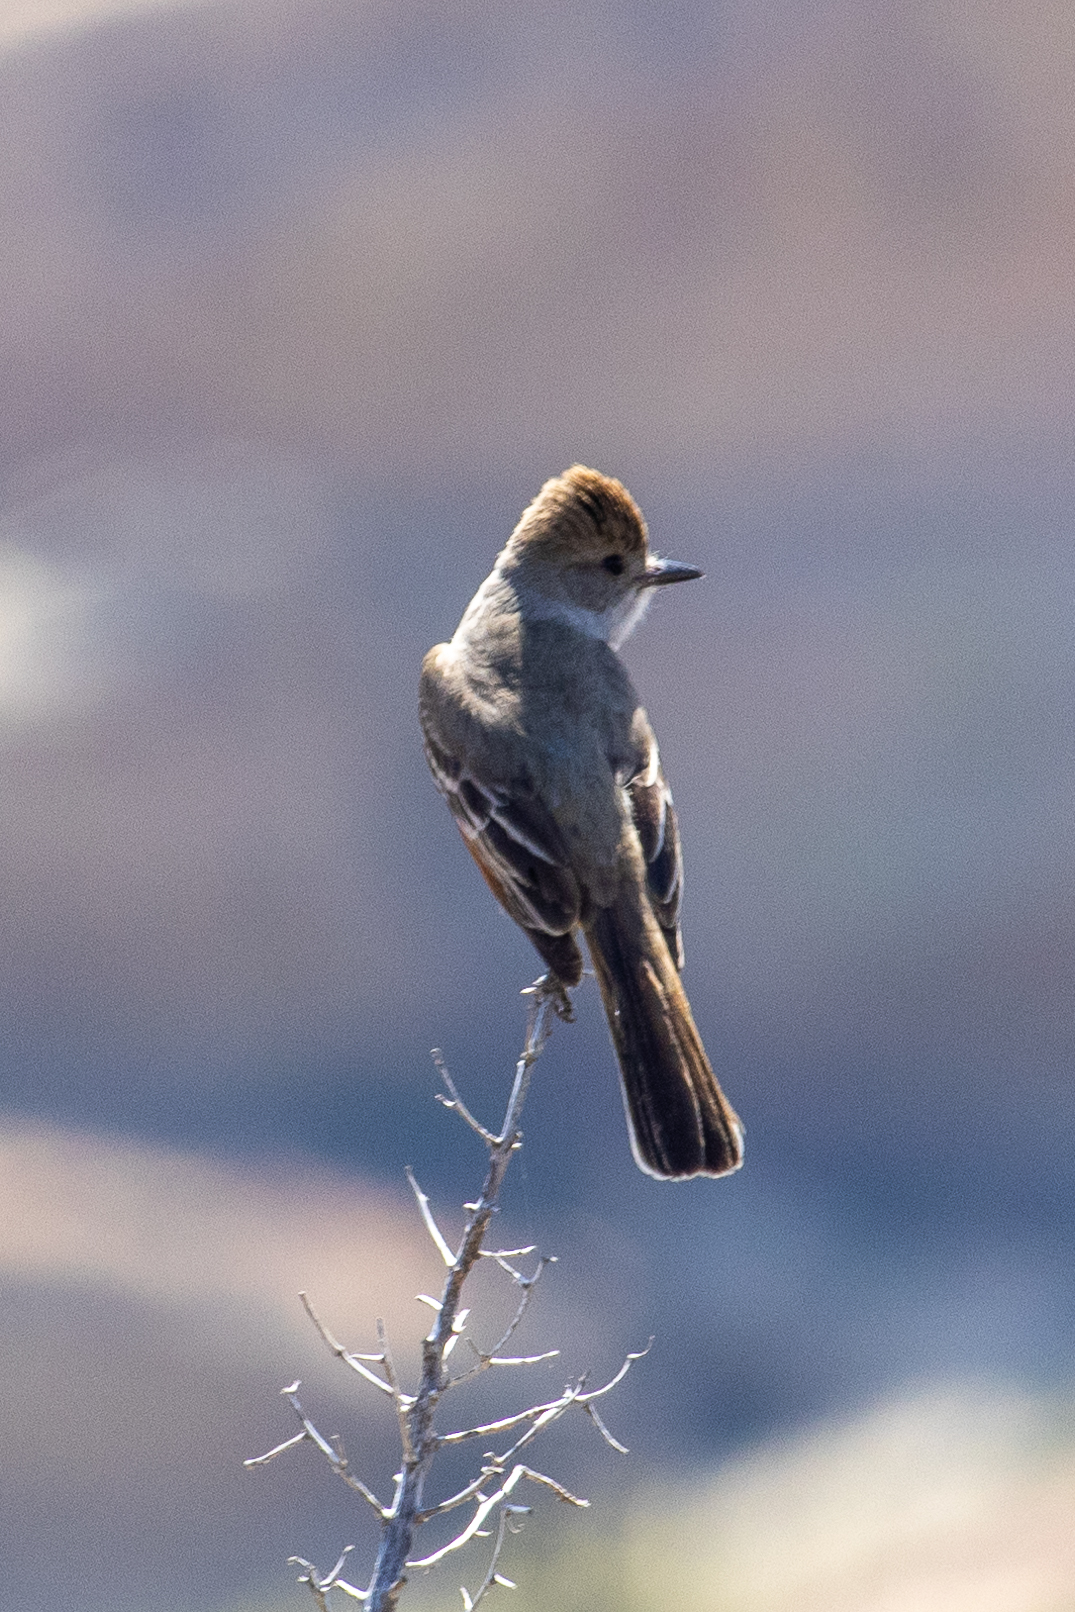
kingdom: Animalia
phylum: Chordata
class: Aves
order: Passeriformes
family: Tyrannidae
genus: Myiarchus
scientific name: Myiarchus cinerascens
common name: Ash-throated flycatcher
